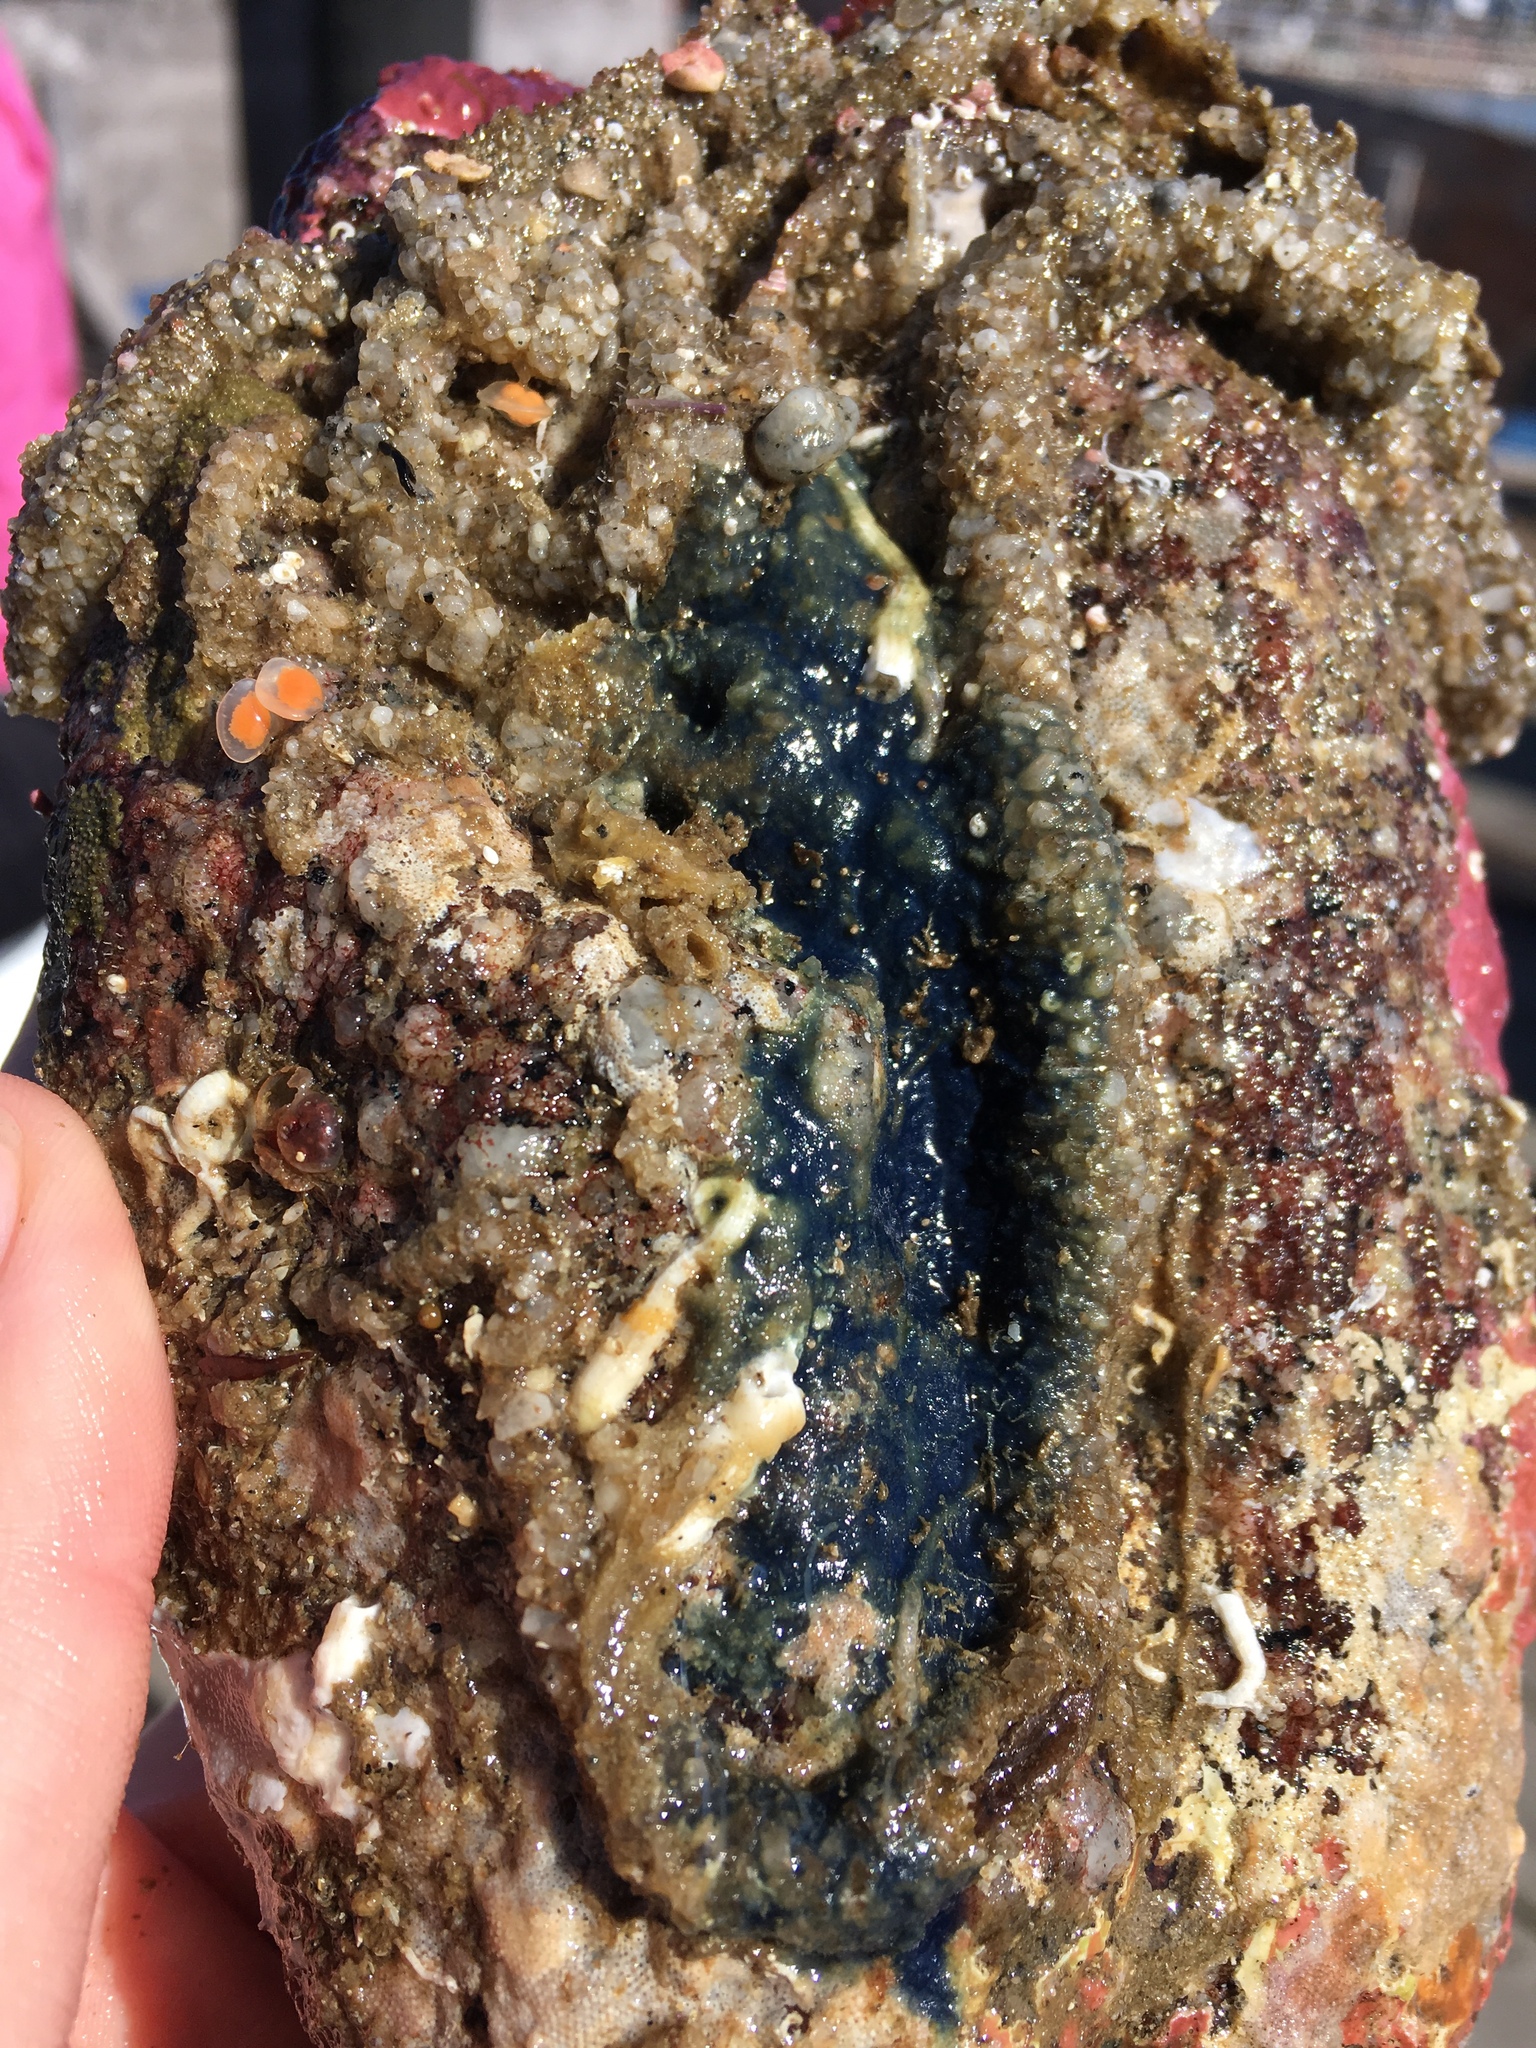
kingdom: Animalia
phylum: Porifera
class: Demospongiae
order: Poecilosclerida
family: Hymedesmiidae
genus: Acanthancora
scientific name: Acanthancora cyanocrypta
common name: Cobalt blue horny sponge
